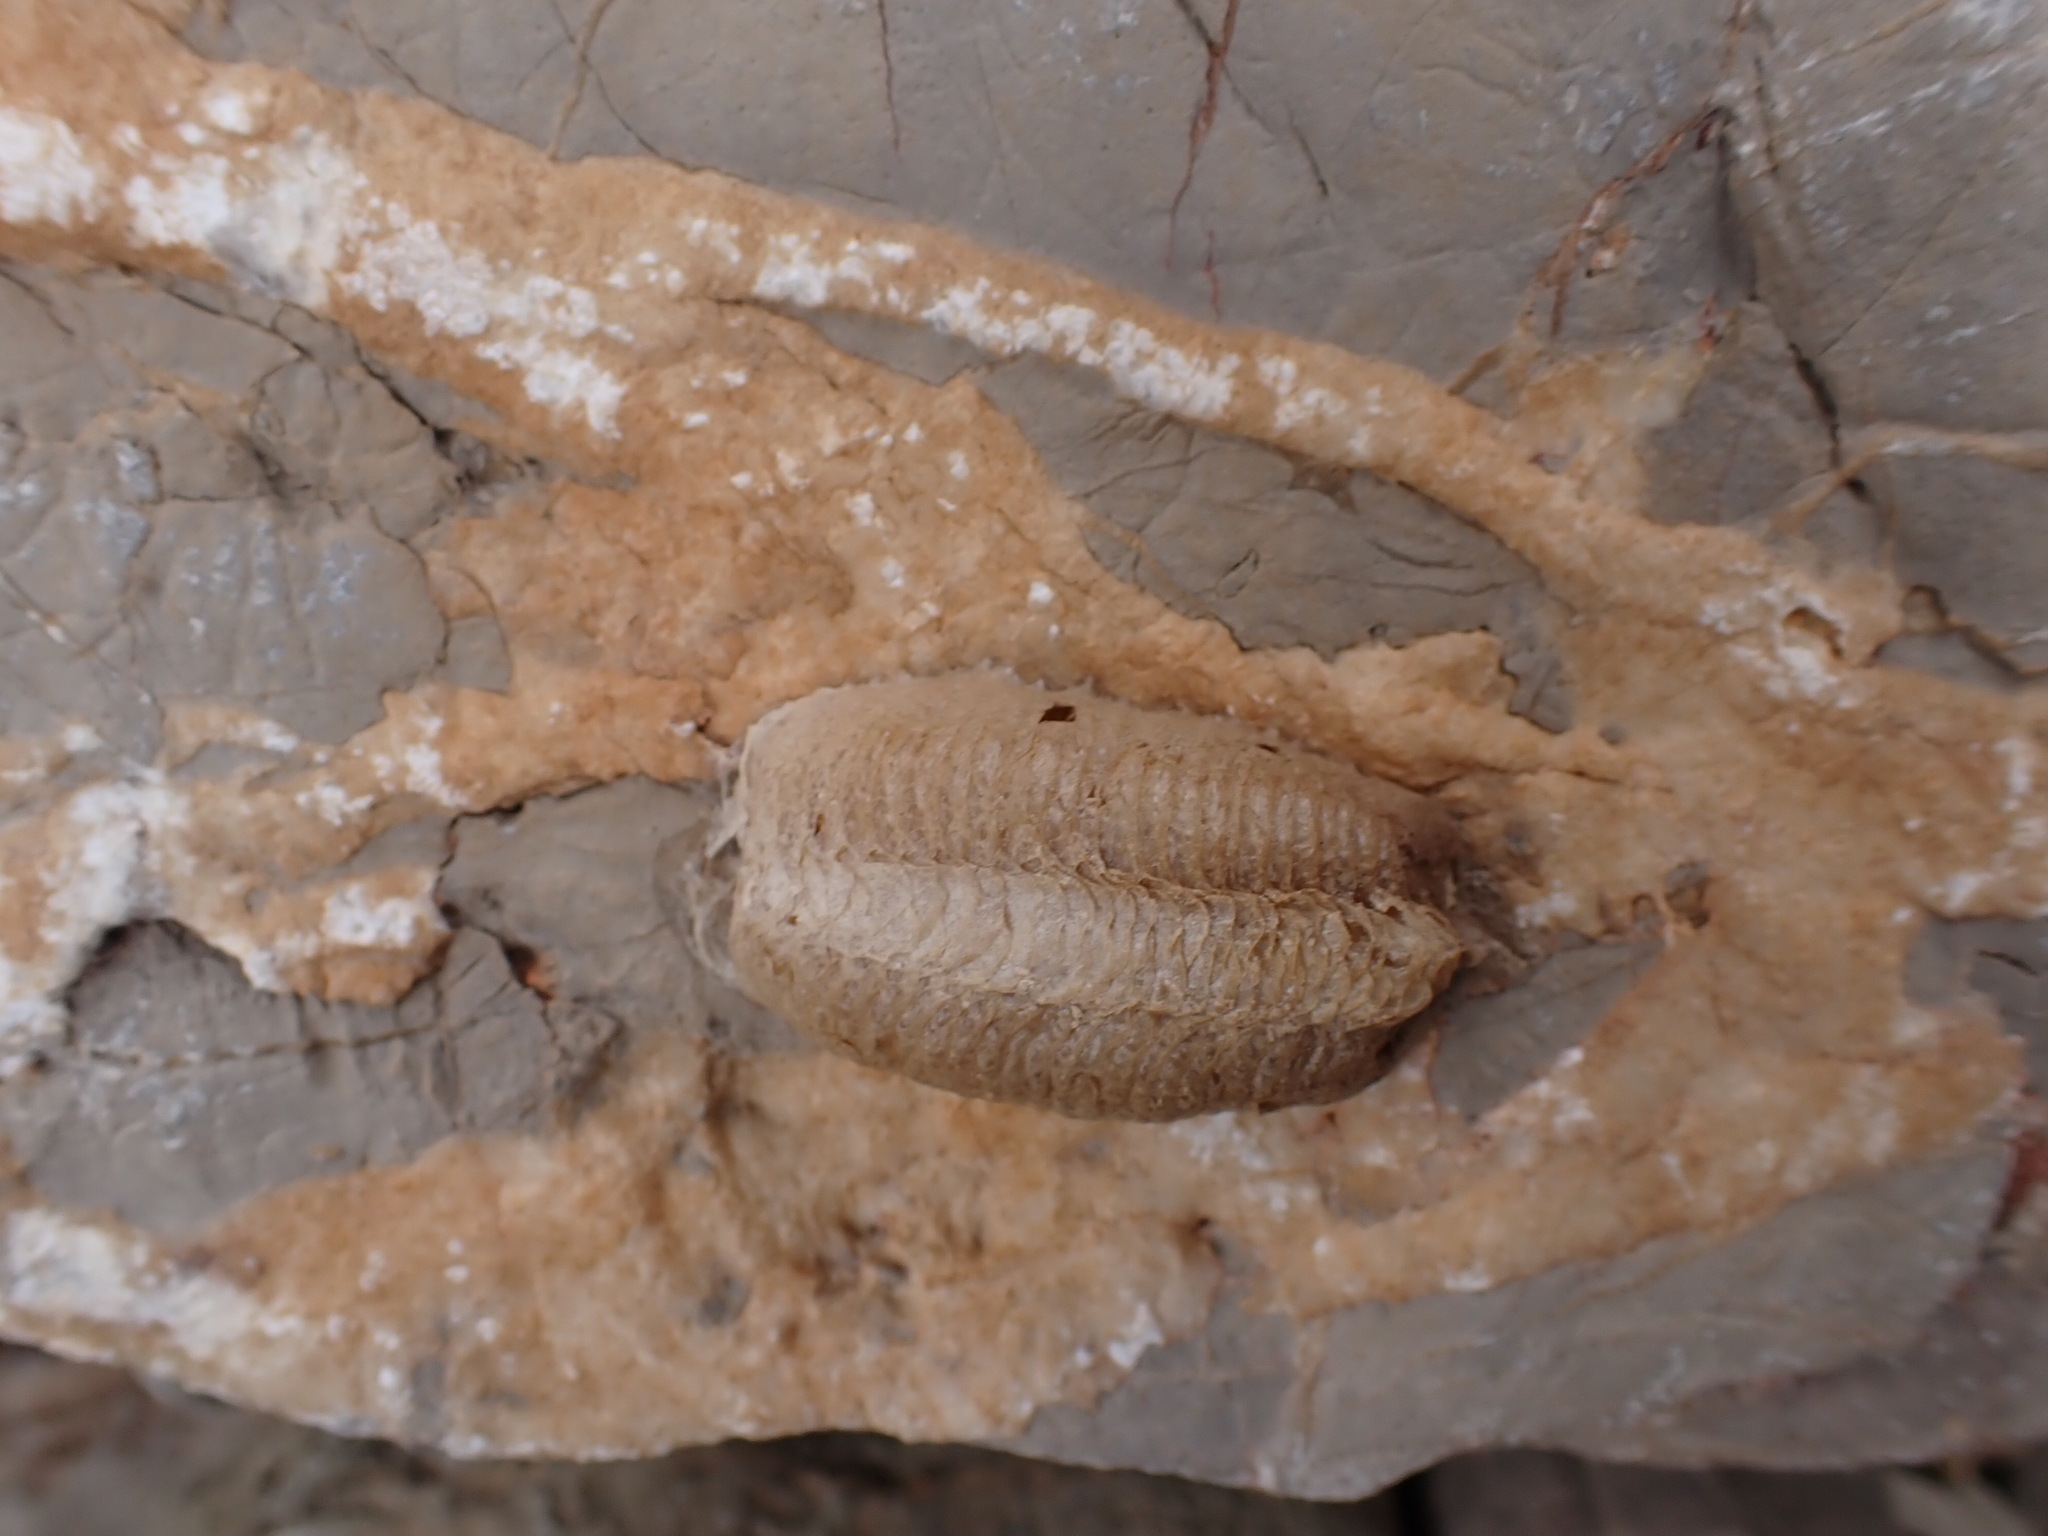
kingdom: Animalia
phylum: Arthropoda
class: Insecta
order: Mantodea
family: Mantidae
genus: Mantis
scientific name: Mantis religiosa
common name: Praying mantis
